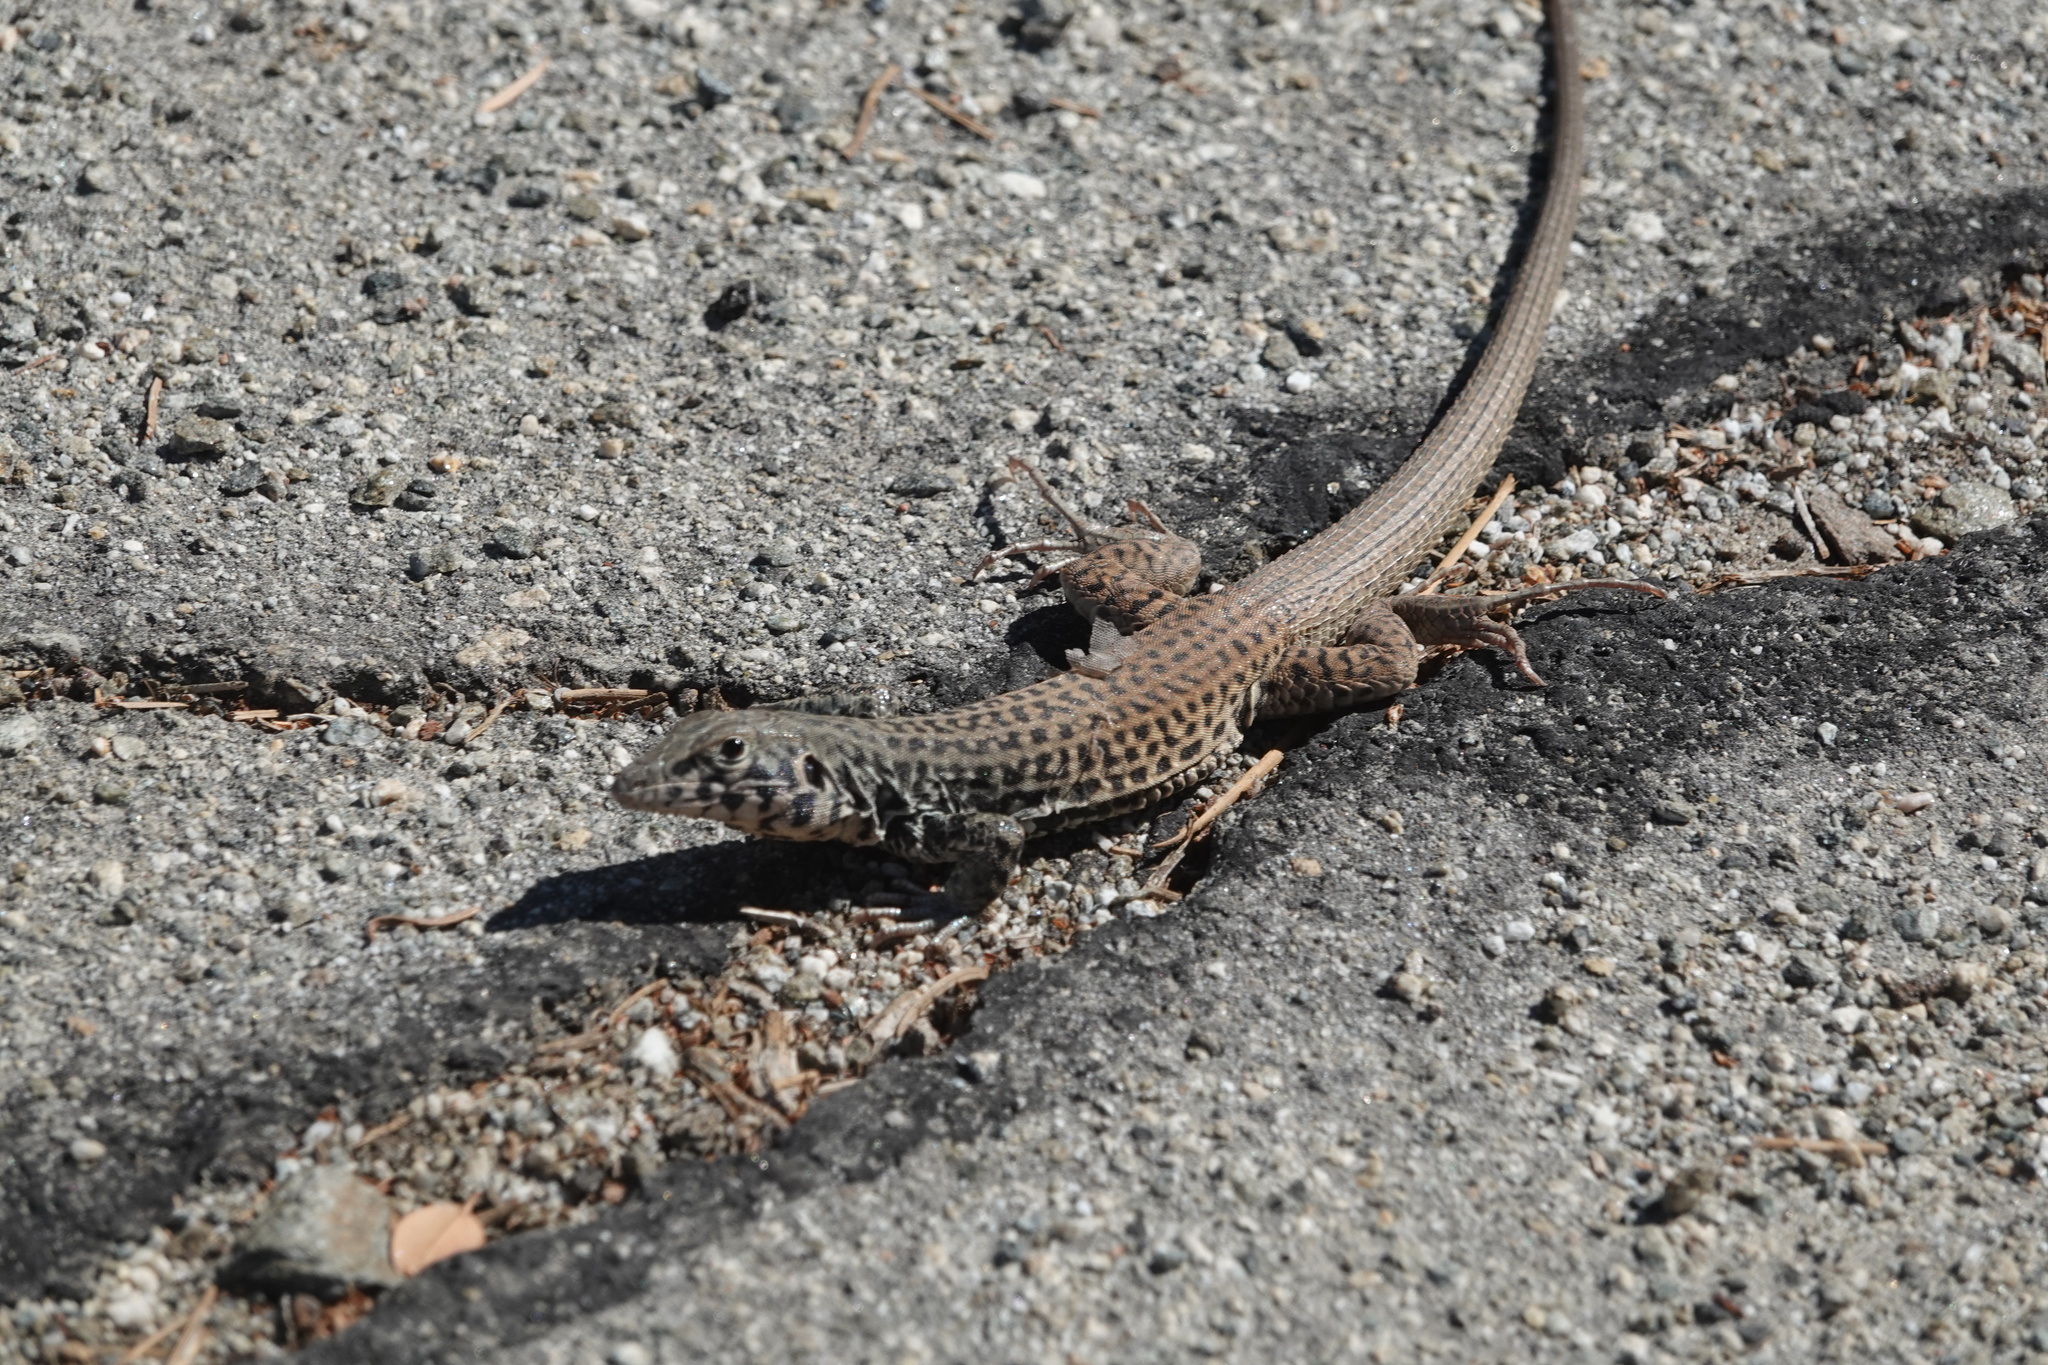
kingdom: Animalia
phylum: Chordata
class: Squamata
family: Teiidae
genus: Aspidoscelis
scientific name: Aspidoscelis tigris
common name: Tiger whiptail
